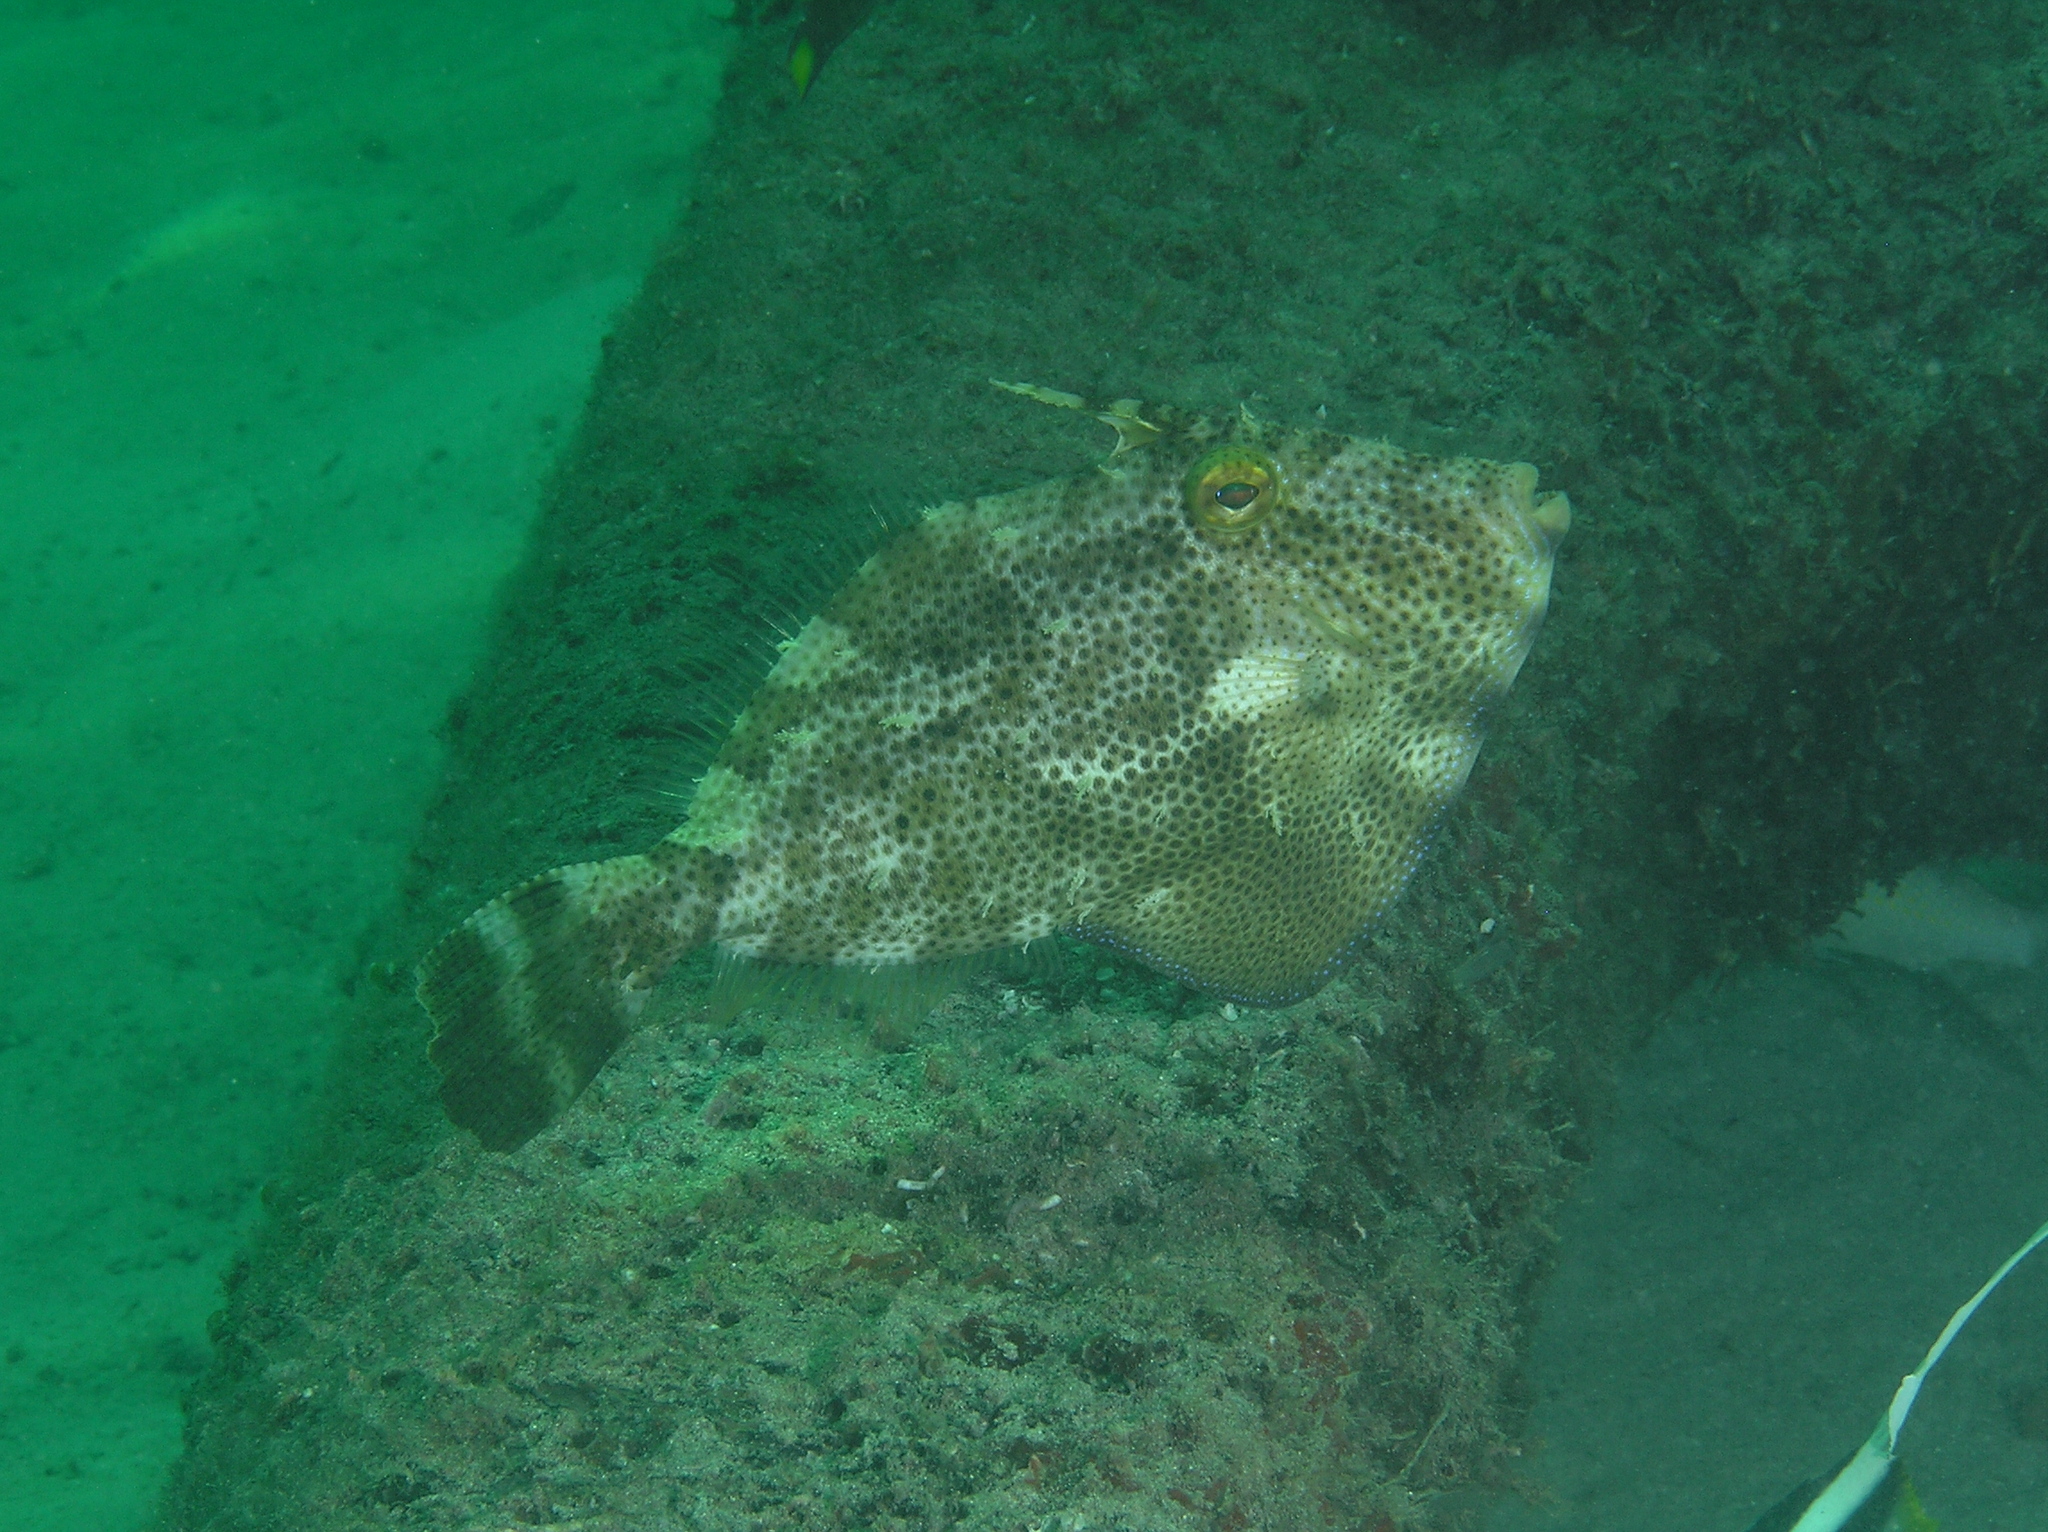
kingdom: Animalia
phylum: Chordata
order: Tetraodontiformes
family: Monacanthidae
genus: Pseudomonacanthus
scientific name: Pseudomonacanthus macrurus
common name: Blotchy filefish
